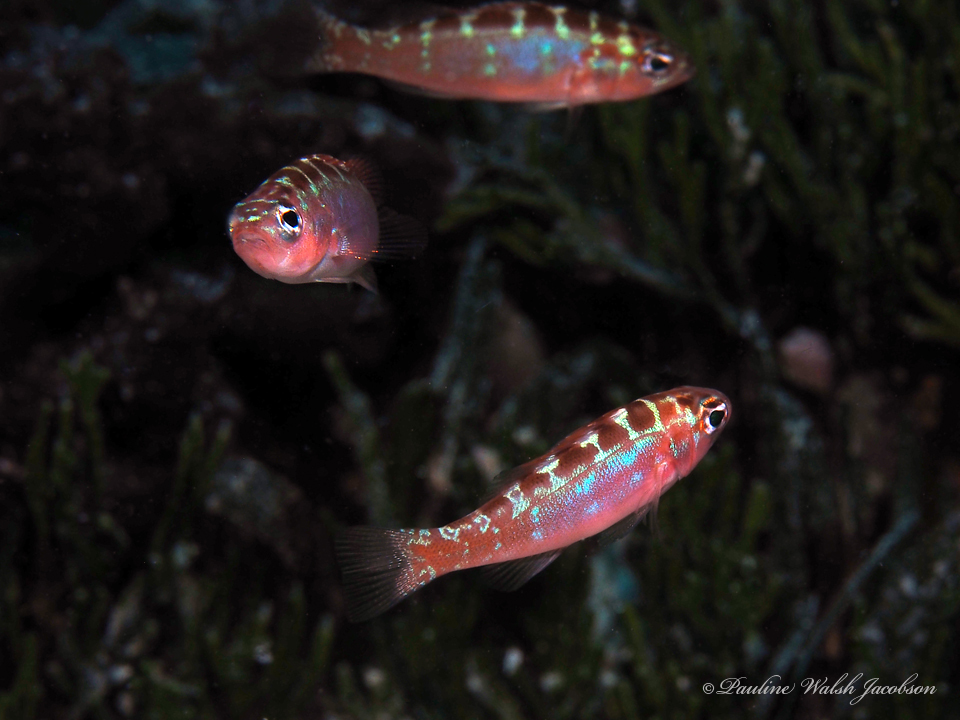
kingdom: Animalia
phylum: Chordata
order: Perciformes
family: Serranidae
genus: Serranus
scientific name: Serranus tortugarum
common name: Chalk bass
